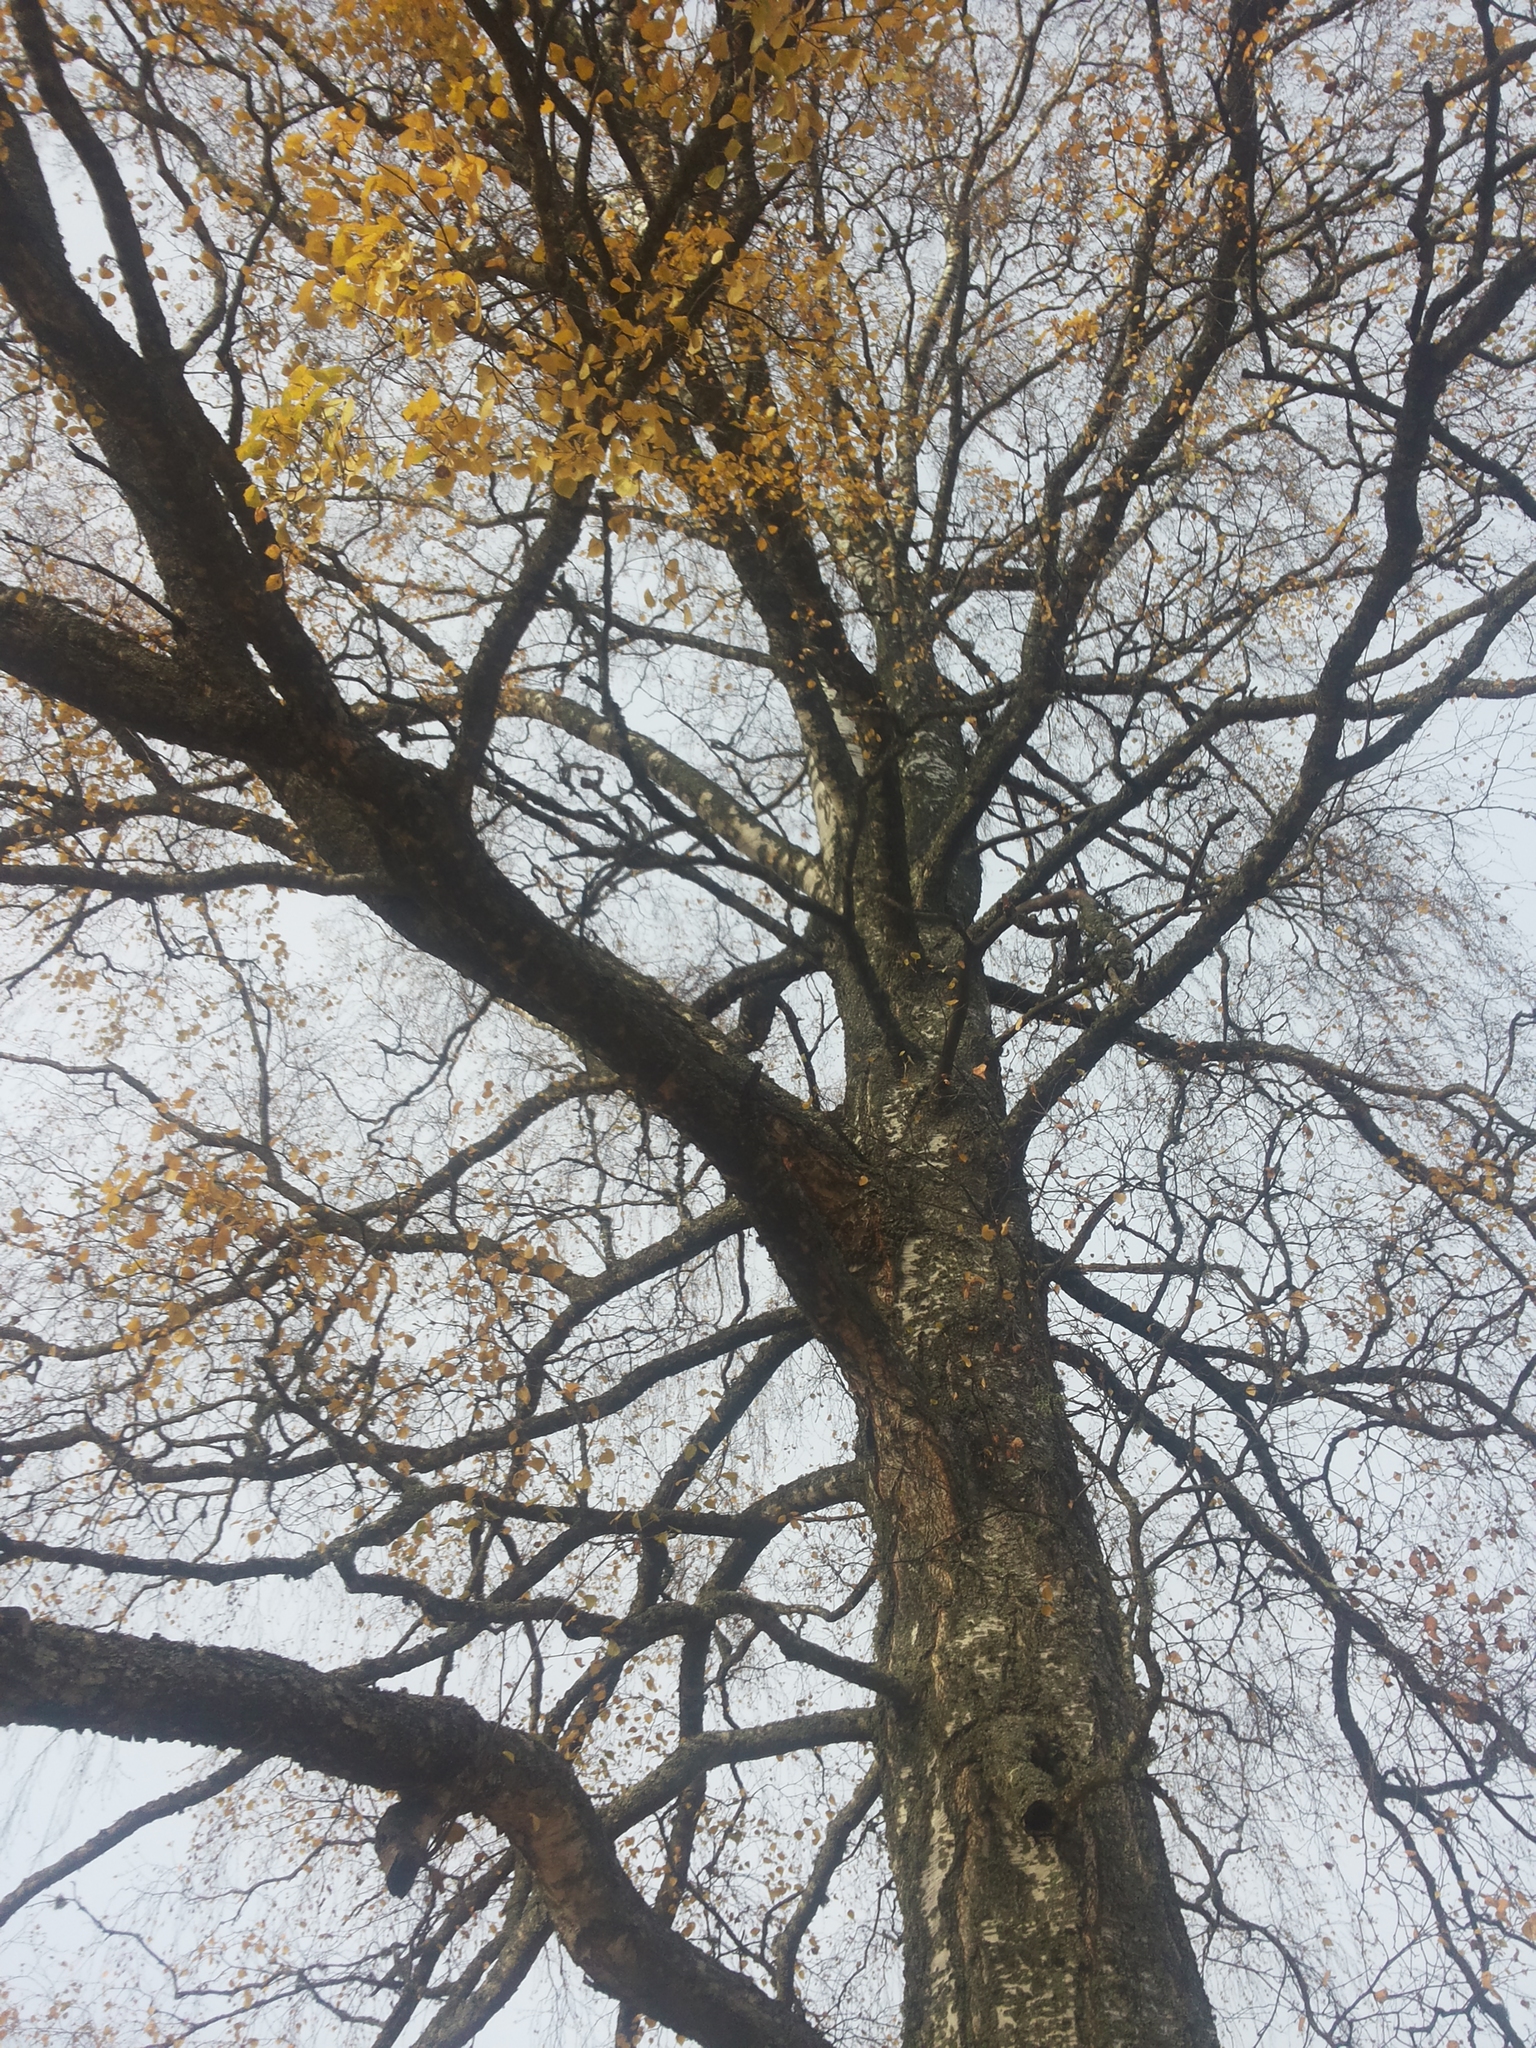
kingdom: Plantae
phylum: Tracheophyta
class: Magnoliopsida
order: Fagales
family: Betulaceae
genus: Betula
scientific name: Betula pendula
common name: Silver birch
